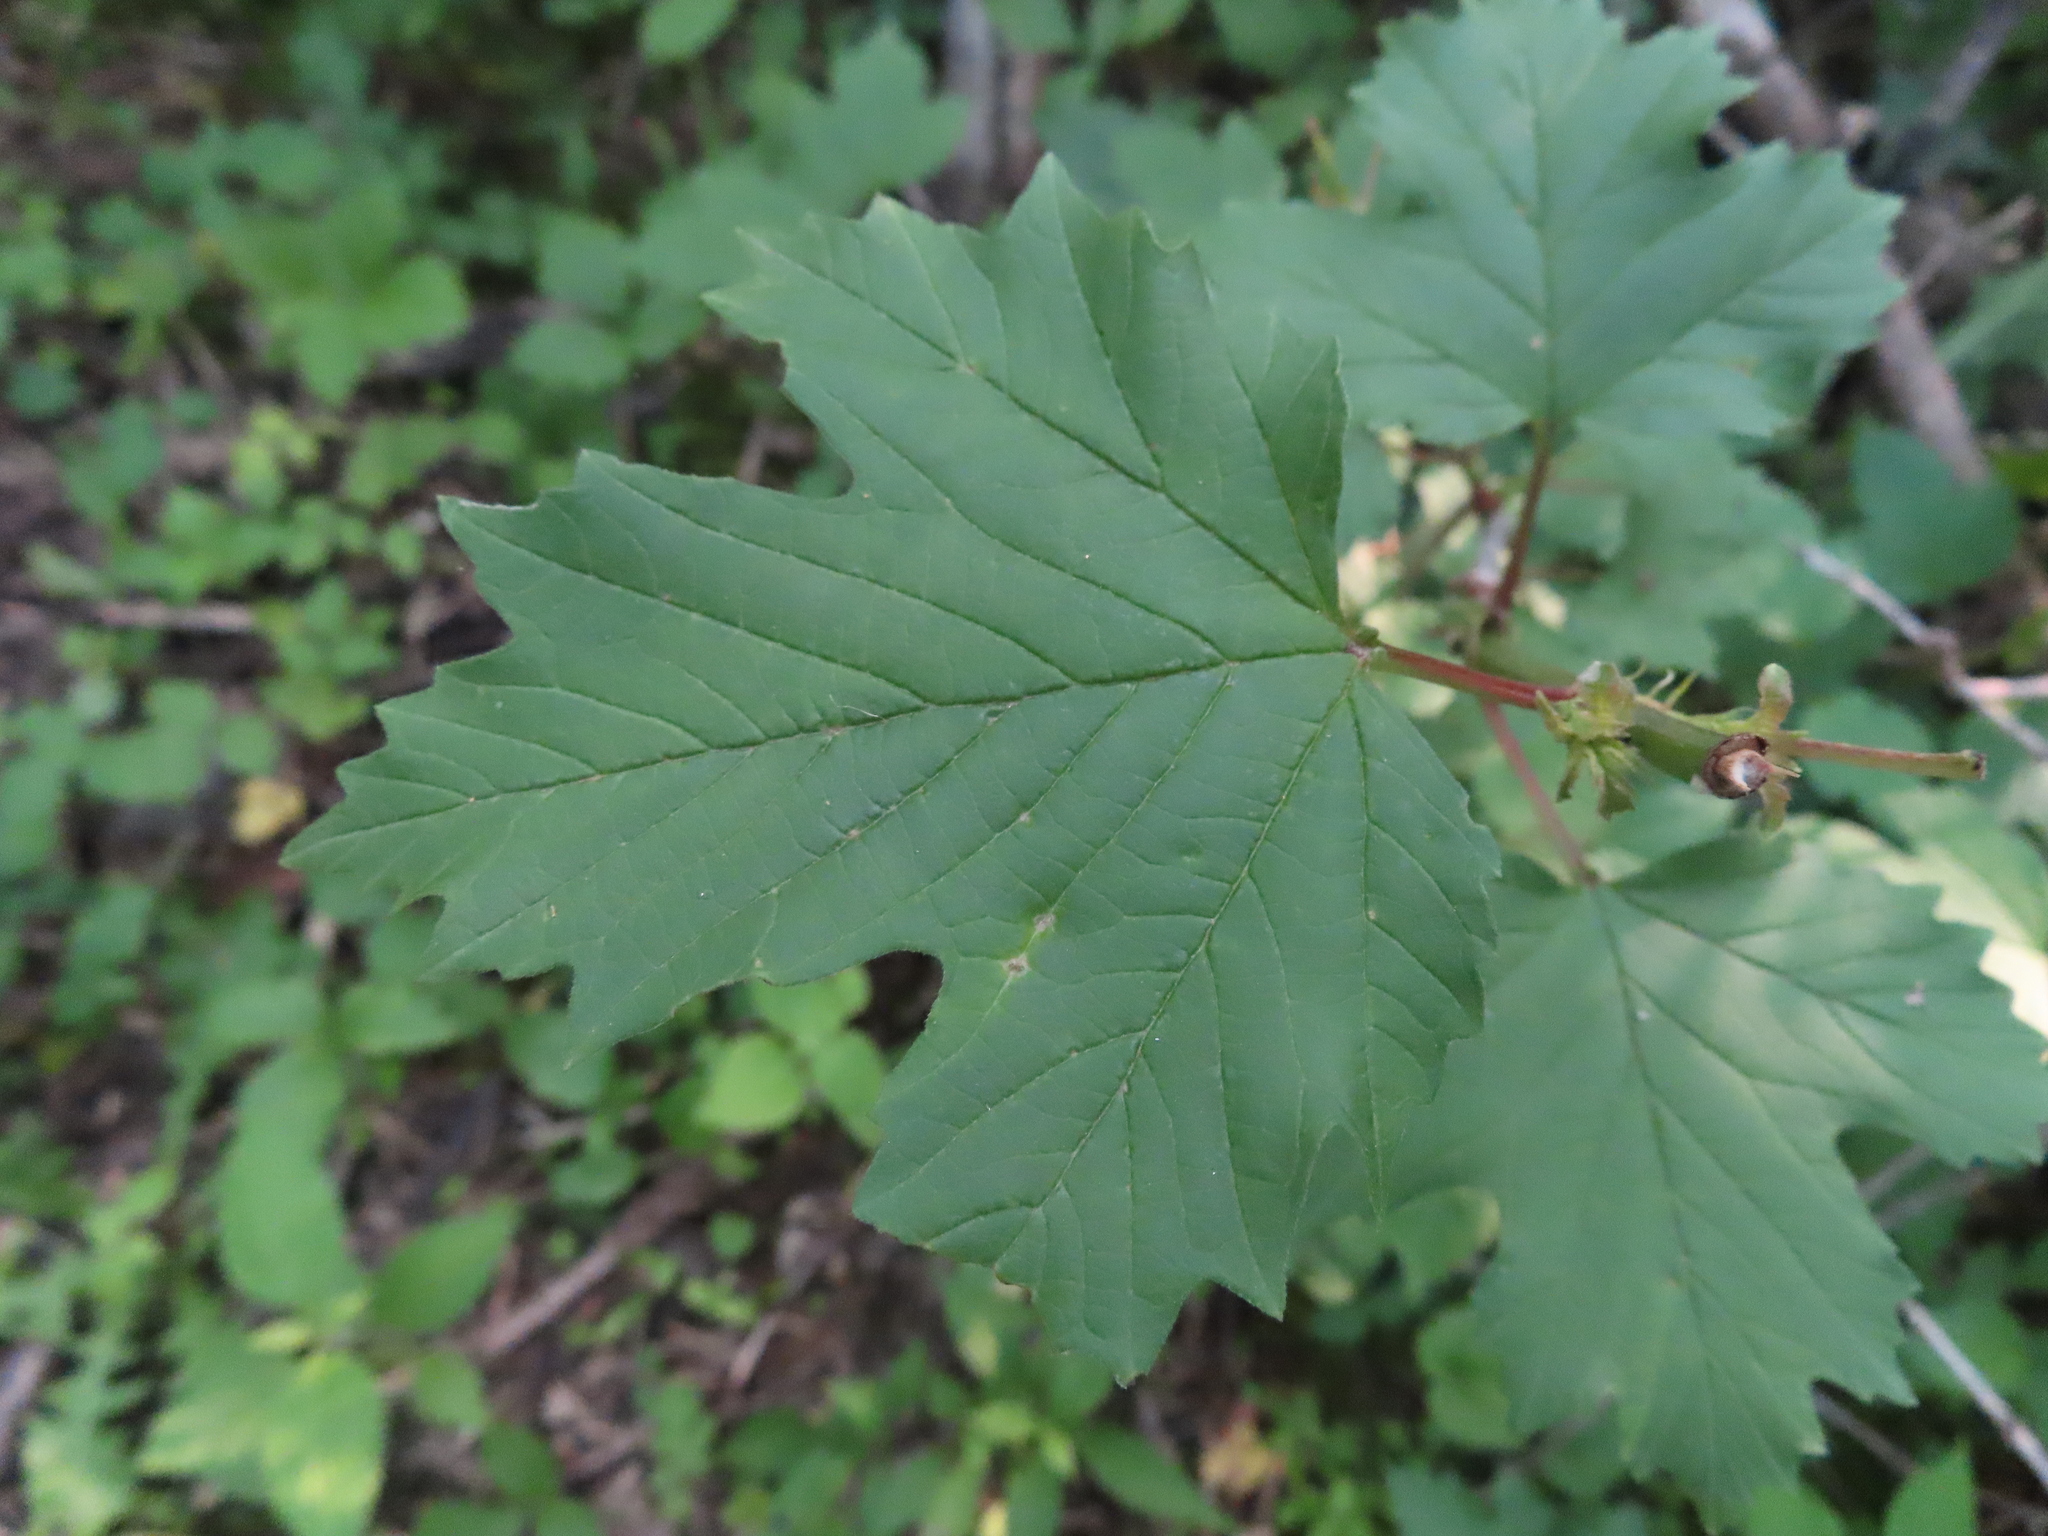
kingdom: Plantae
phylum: Tracheophyta
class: Magnoliopsida
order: Dipsacales
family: Viburnaceae
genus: Viburnum
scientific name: Viburnum opulus
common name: Guelder-rose
